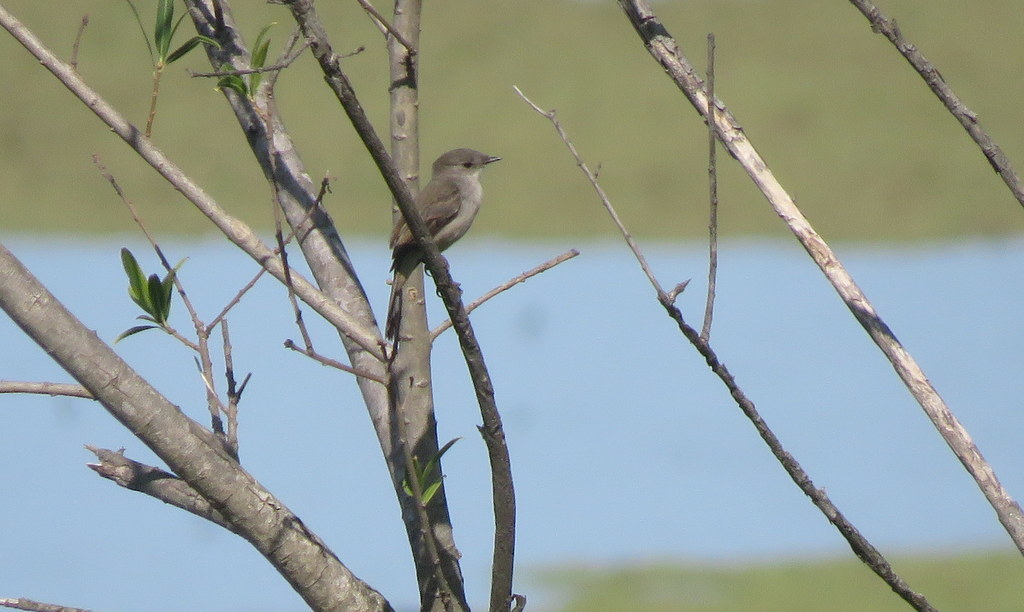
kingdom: Animalia
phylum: Chordata
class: Aves
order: Passeriformes
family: Tyrannidae
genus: Serpophaga
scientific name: Serpophaga nigricans
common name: Sooty tyrannulet
